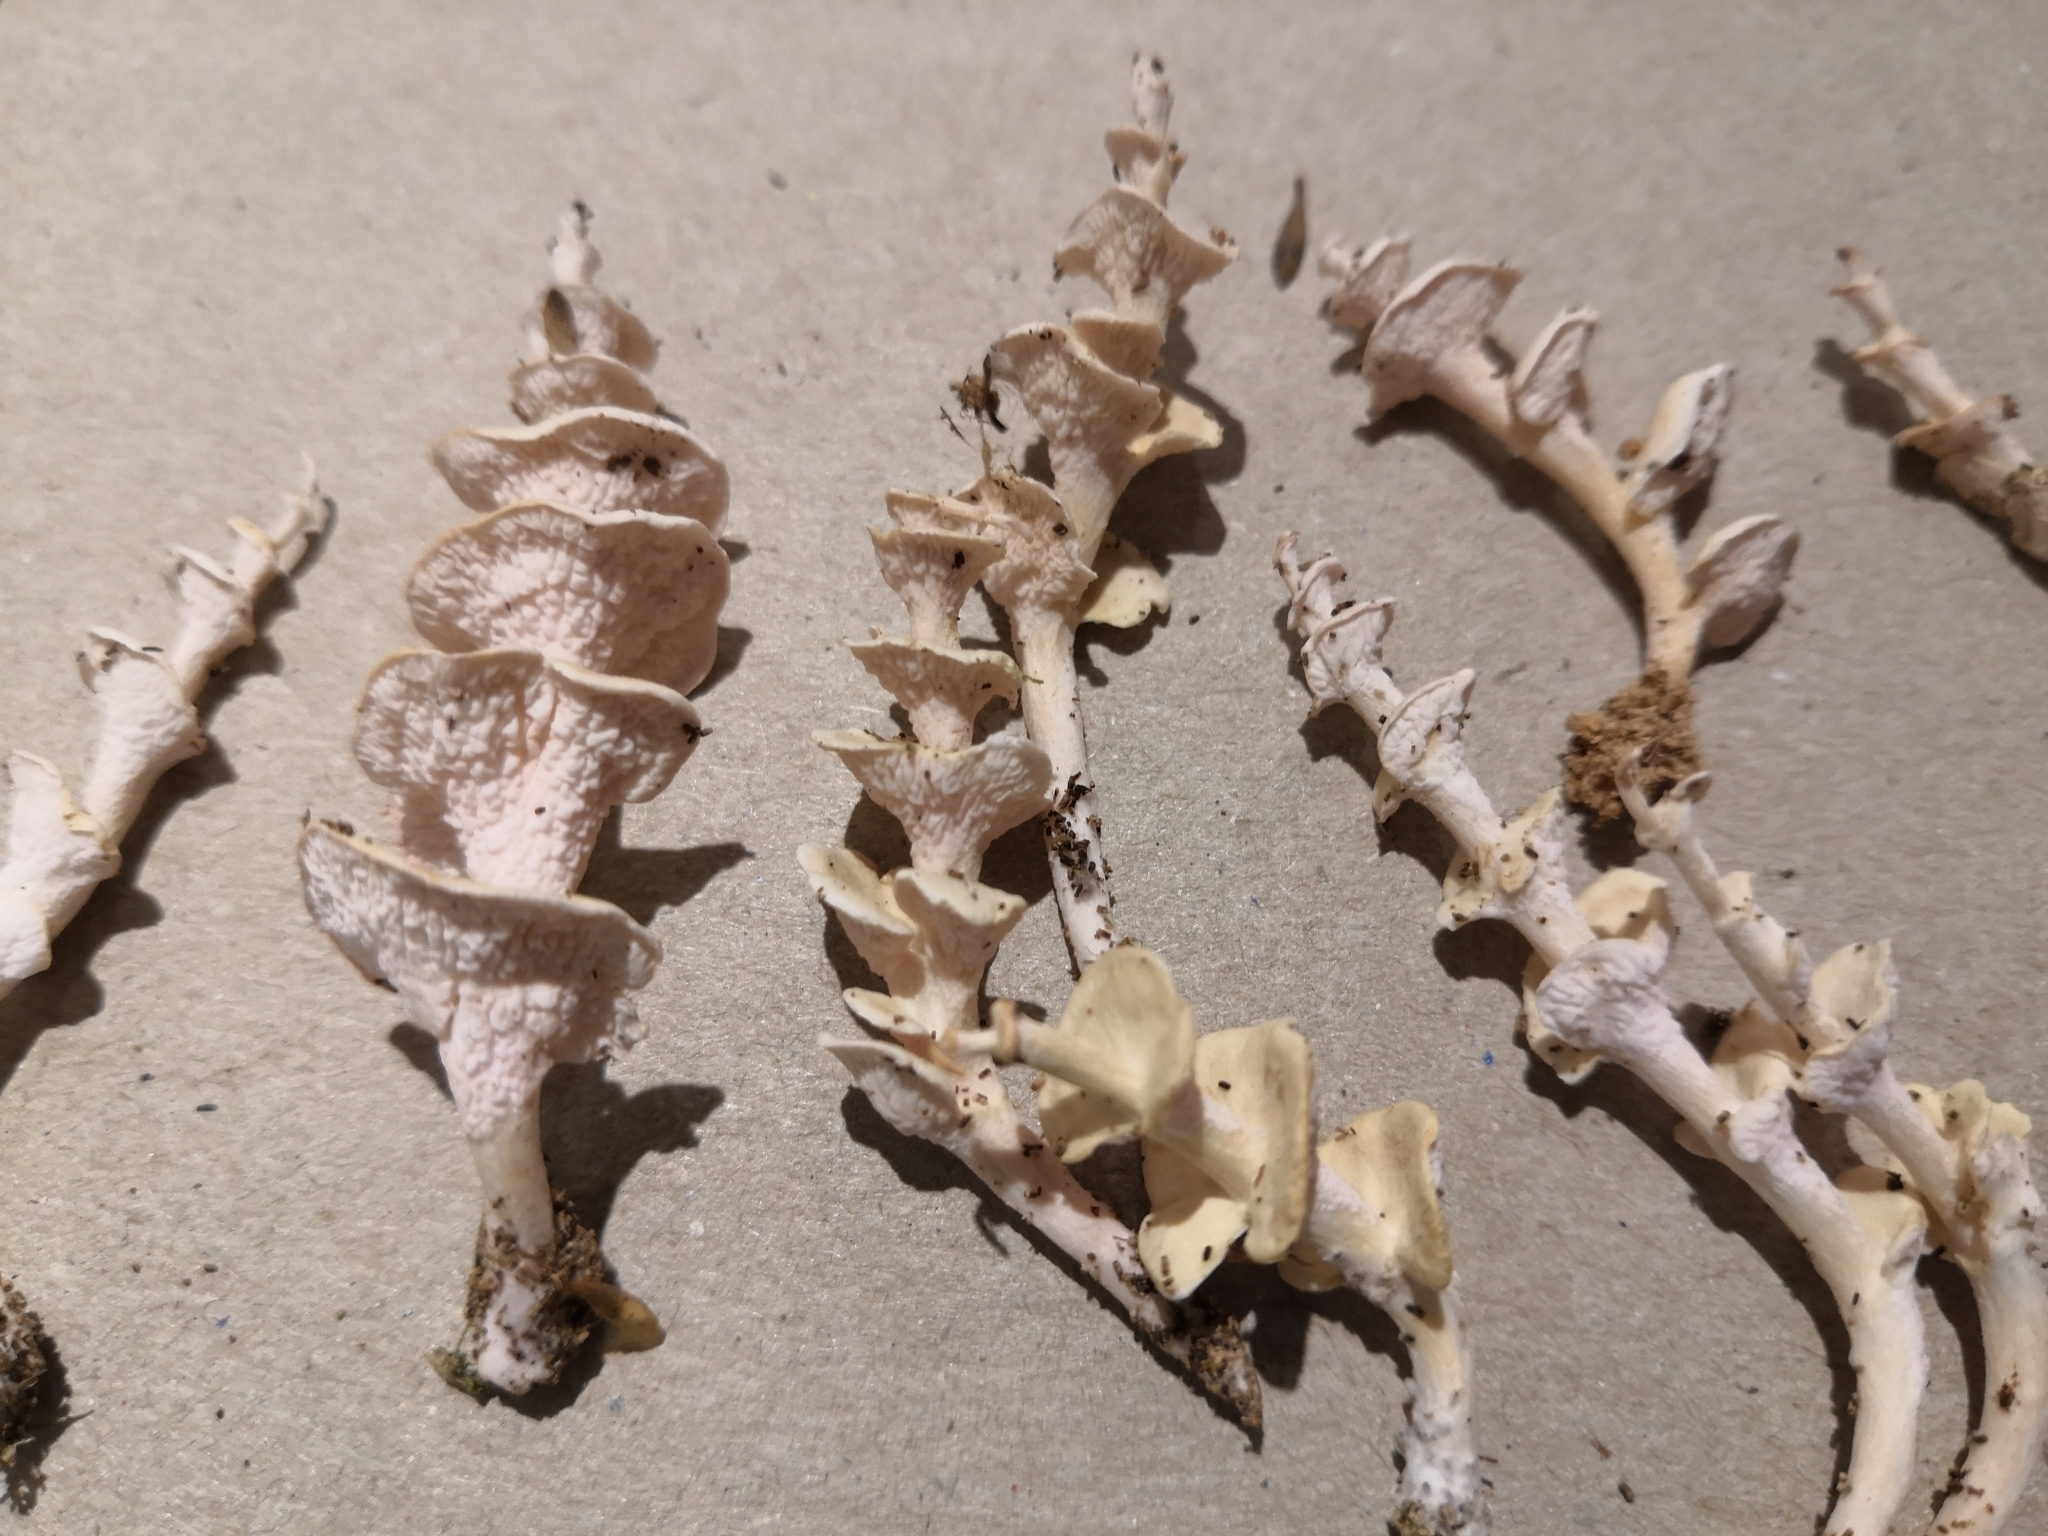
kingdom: Fungi
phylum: Basidiomycota
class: Agaricomycetes
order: Amylocorticiales
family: Amylocorticiaceae
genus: Podoserpula
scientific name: Podoserpula pusio
